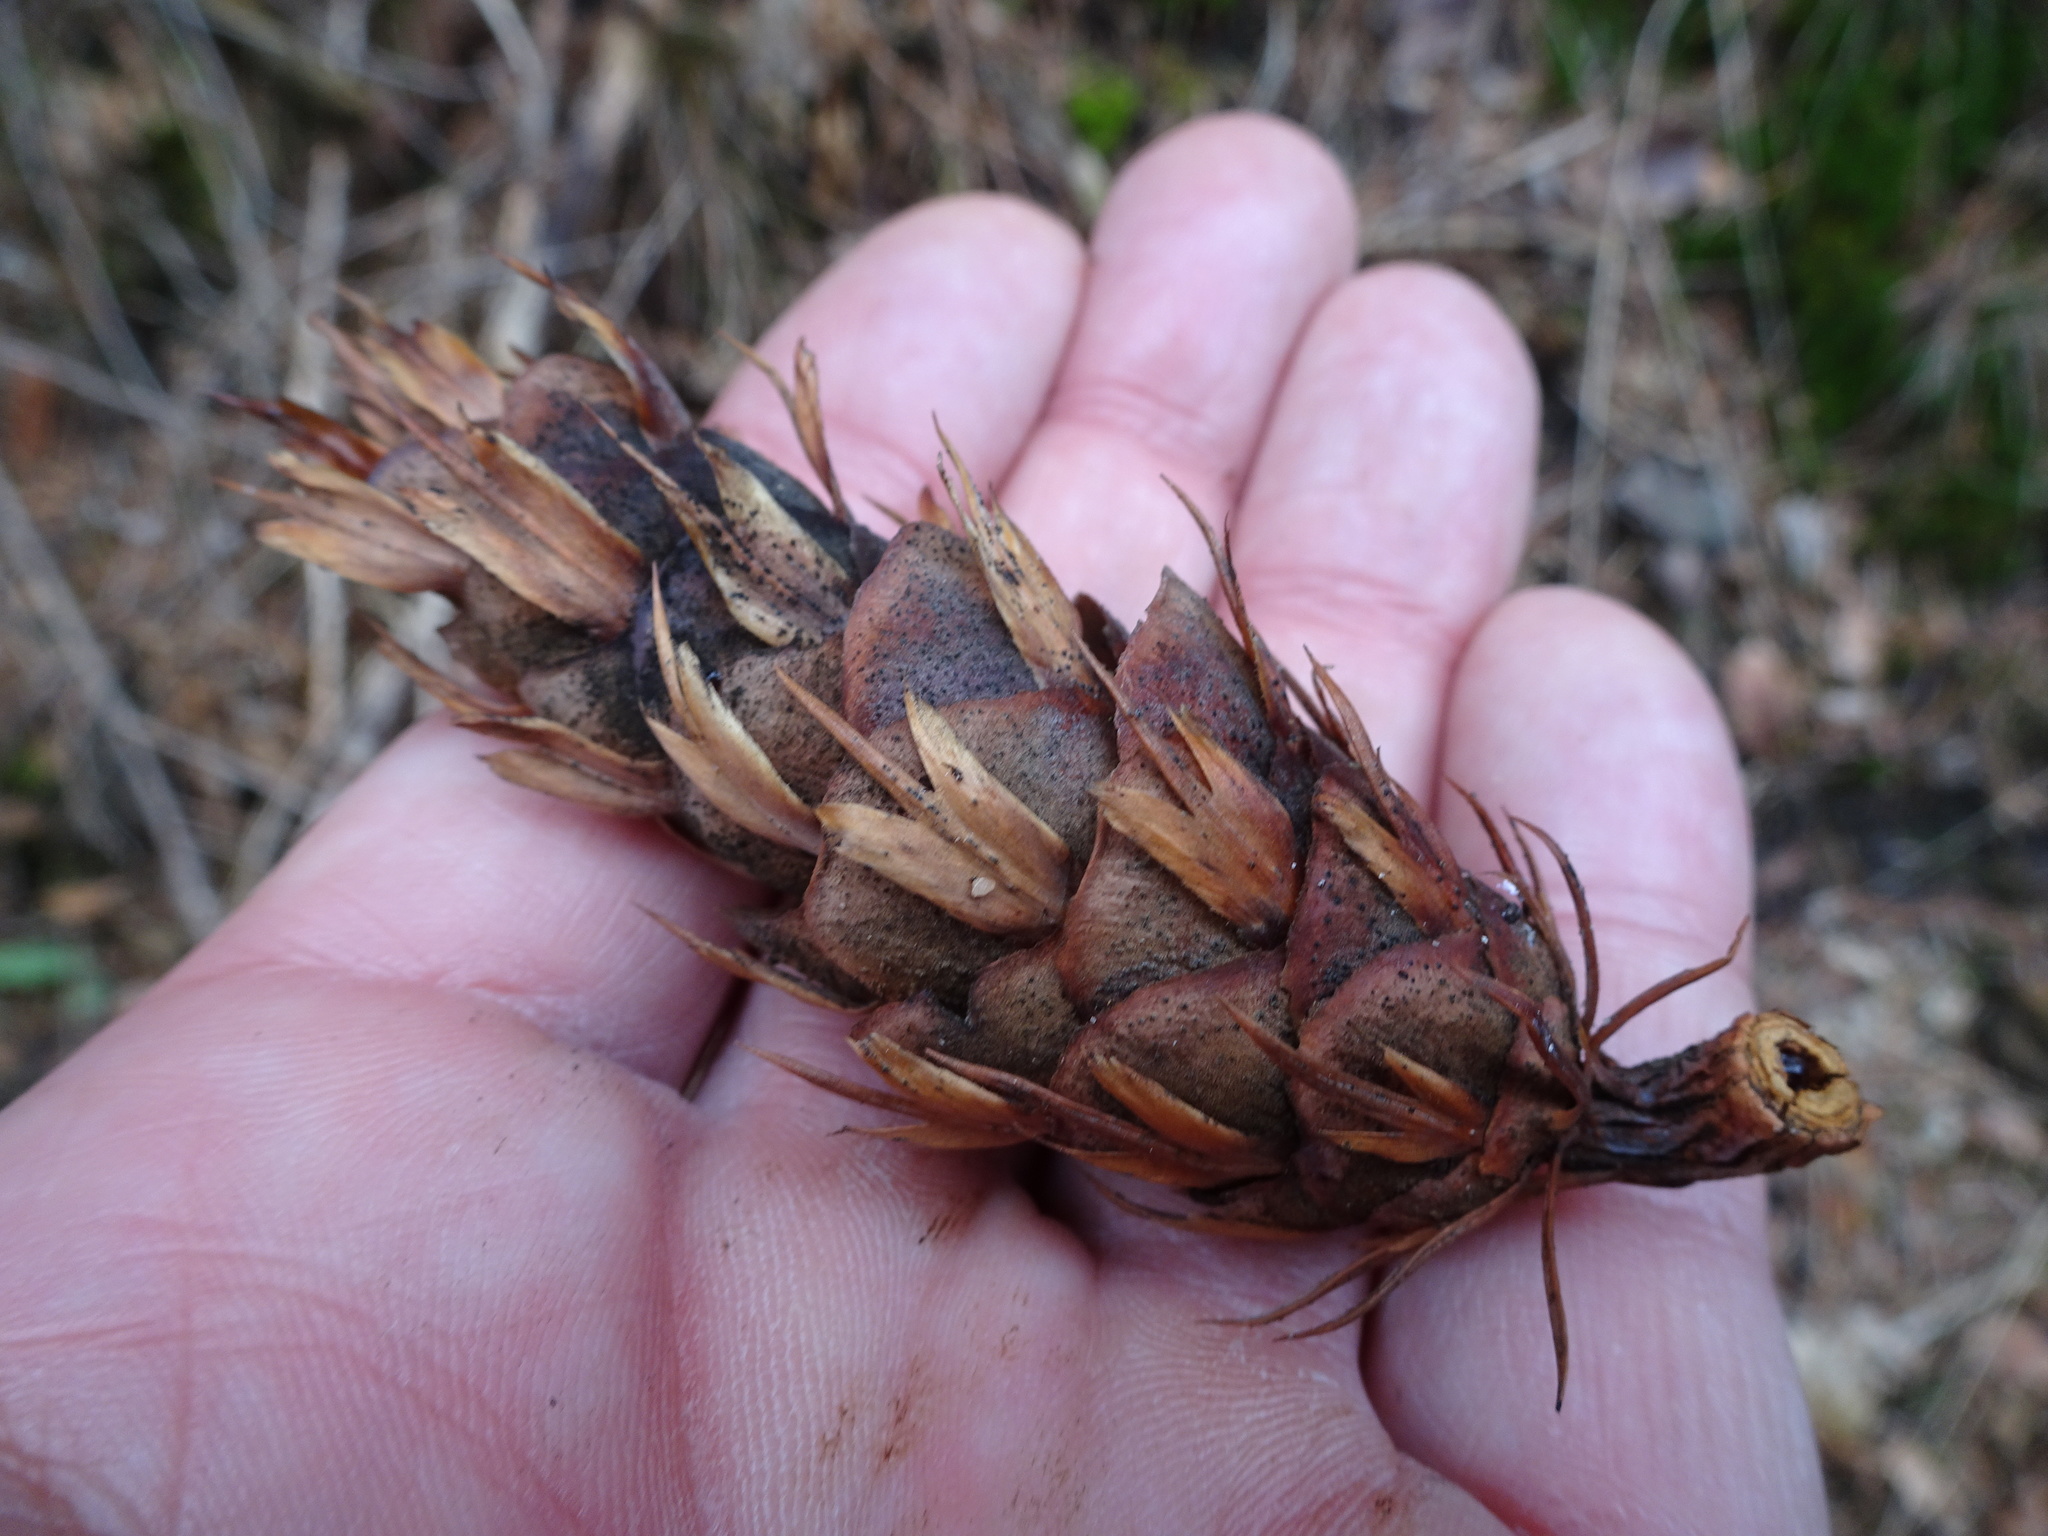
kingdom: Plantae
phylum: Tracheophyta
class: Pinopsida
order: Pinales
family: Pinaceae
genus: Pseudotsuga
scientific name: Pseudotsuga menziesii
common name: Douglas fir
